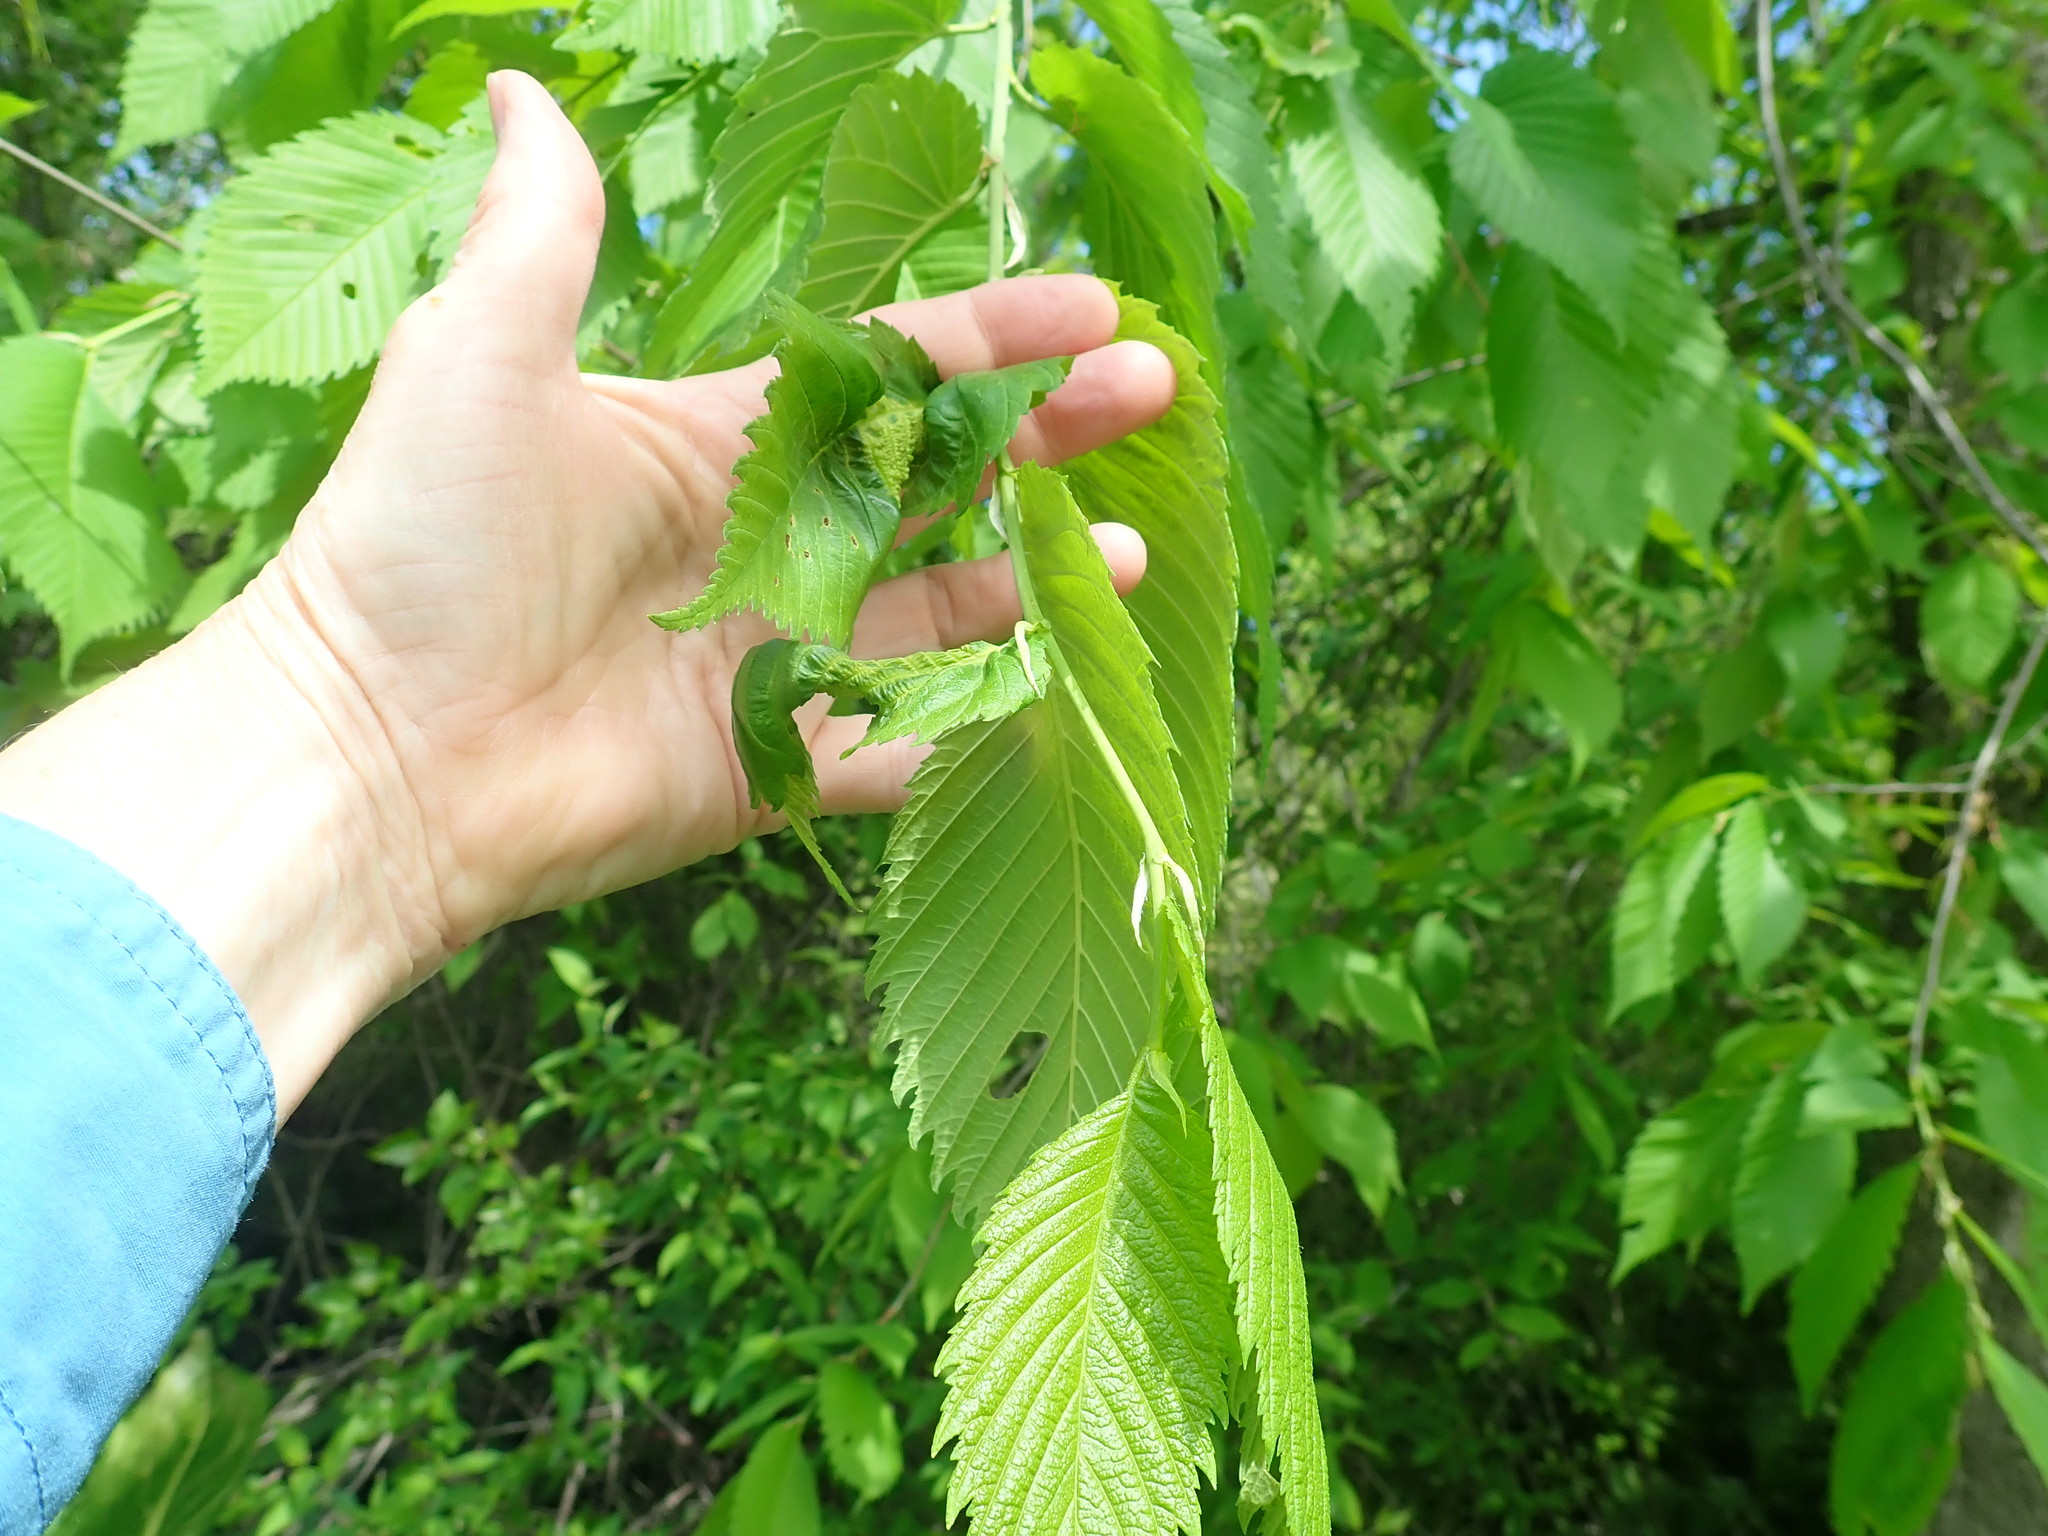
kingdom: Animalia
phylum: Arthropoda
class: Insecta
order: Hemiptera
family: Aphididae
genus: Eriosoma
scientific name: Eriosoma americanum
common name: Woolly elm aphid
